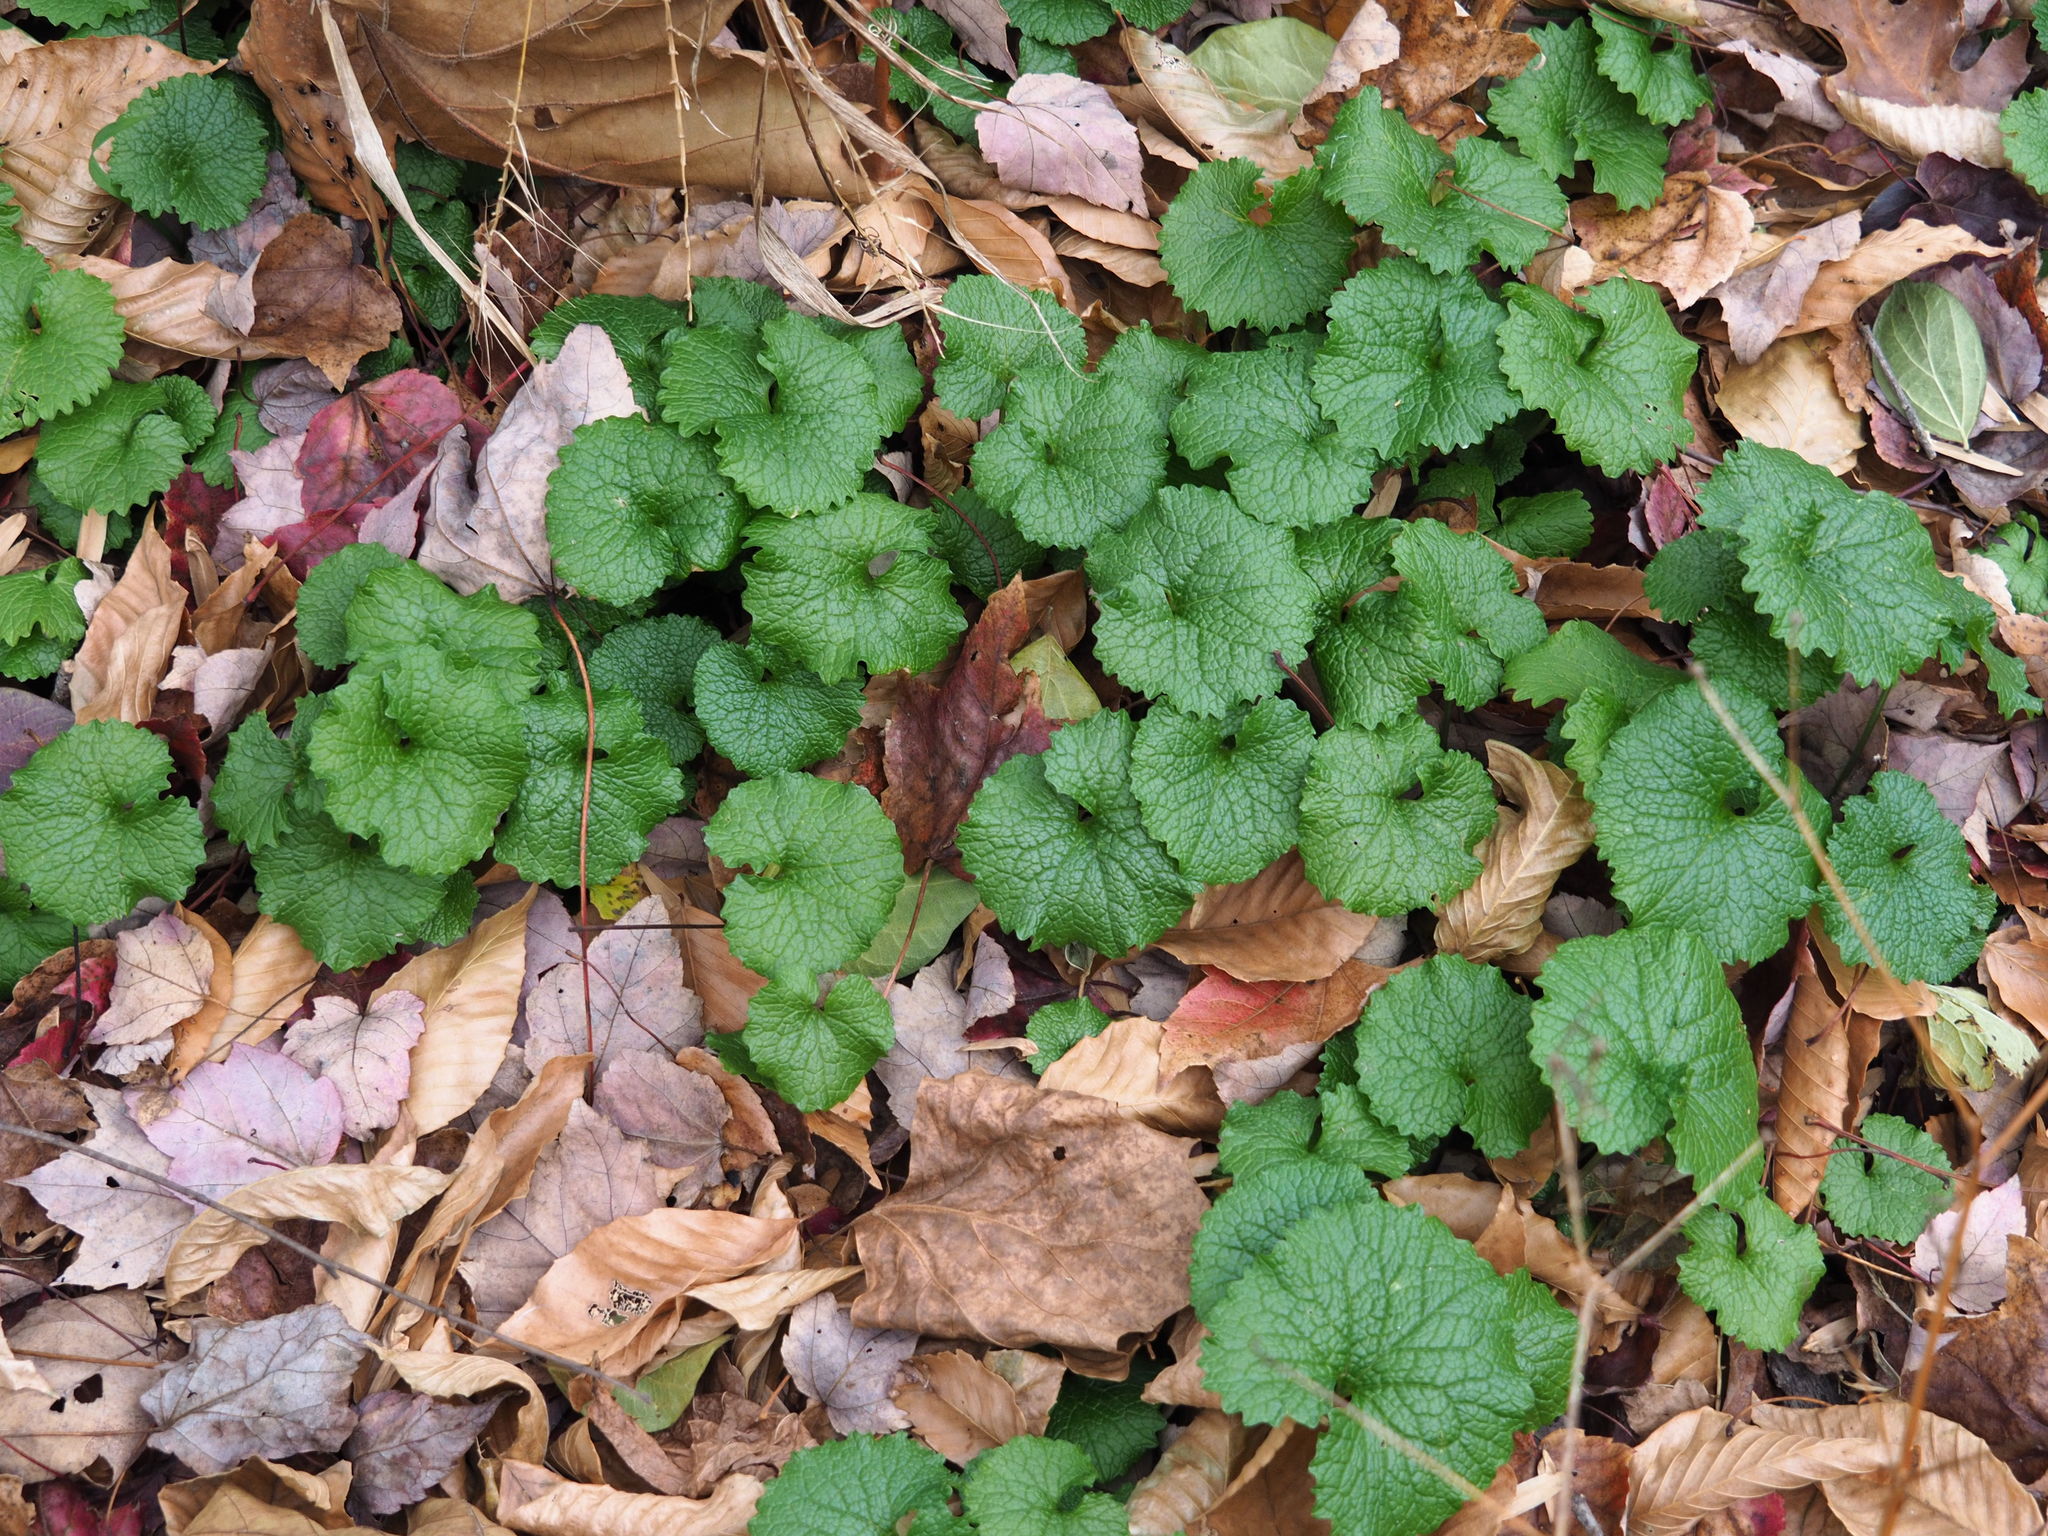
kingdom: Plantae
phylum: Tracheophyta
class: Magnoliopsida
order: Brassicales
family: Brassicaceae
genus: Alliaria
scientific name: Alliaria petiolata
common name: Garlic mustard
